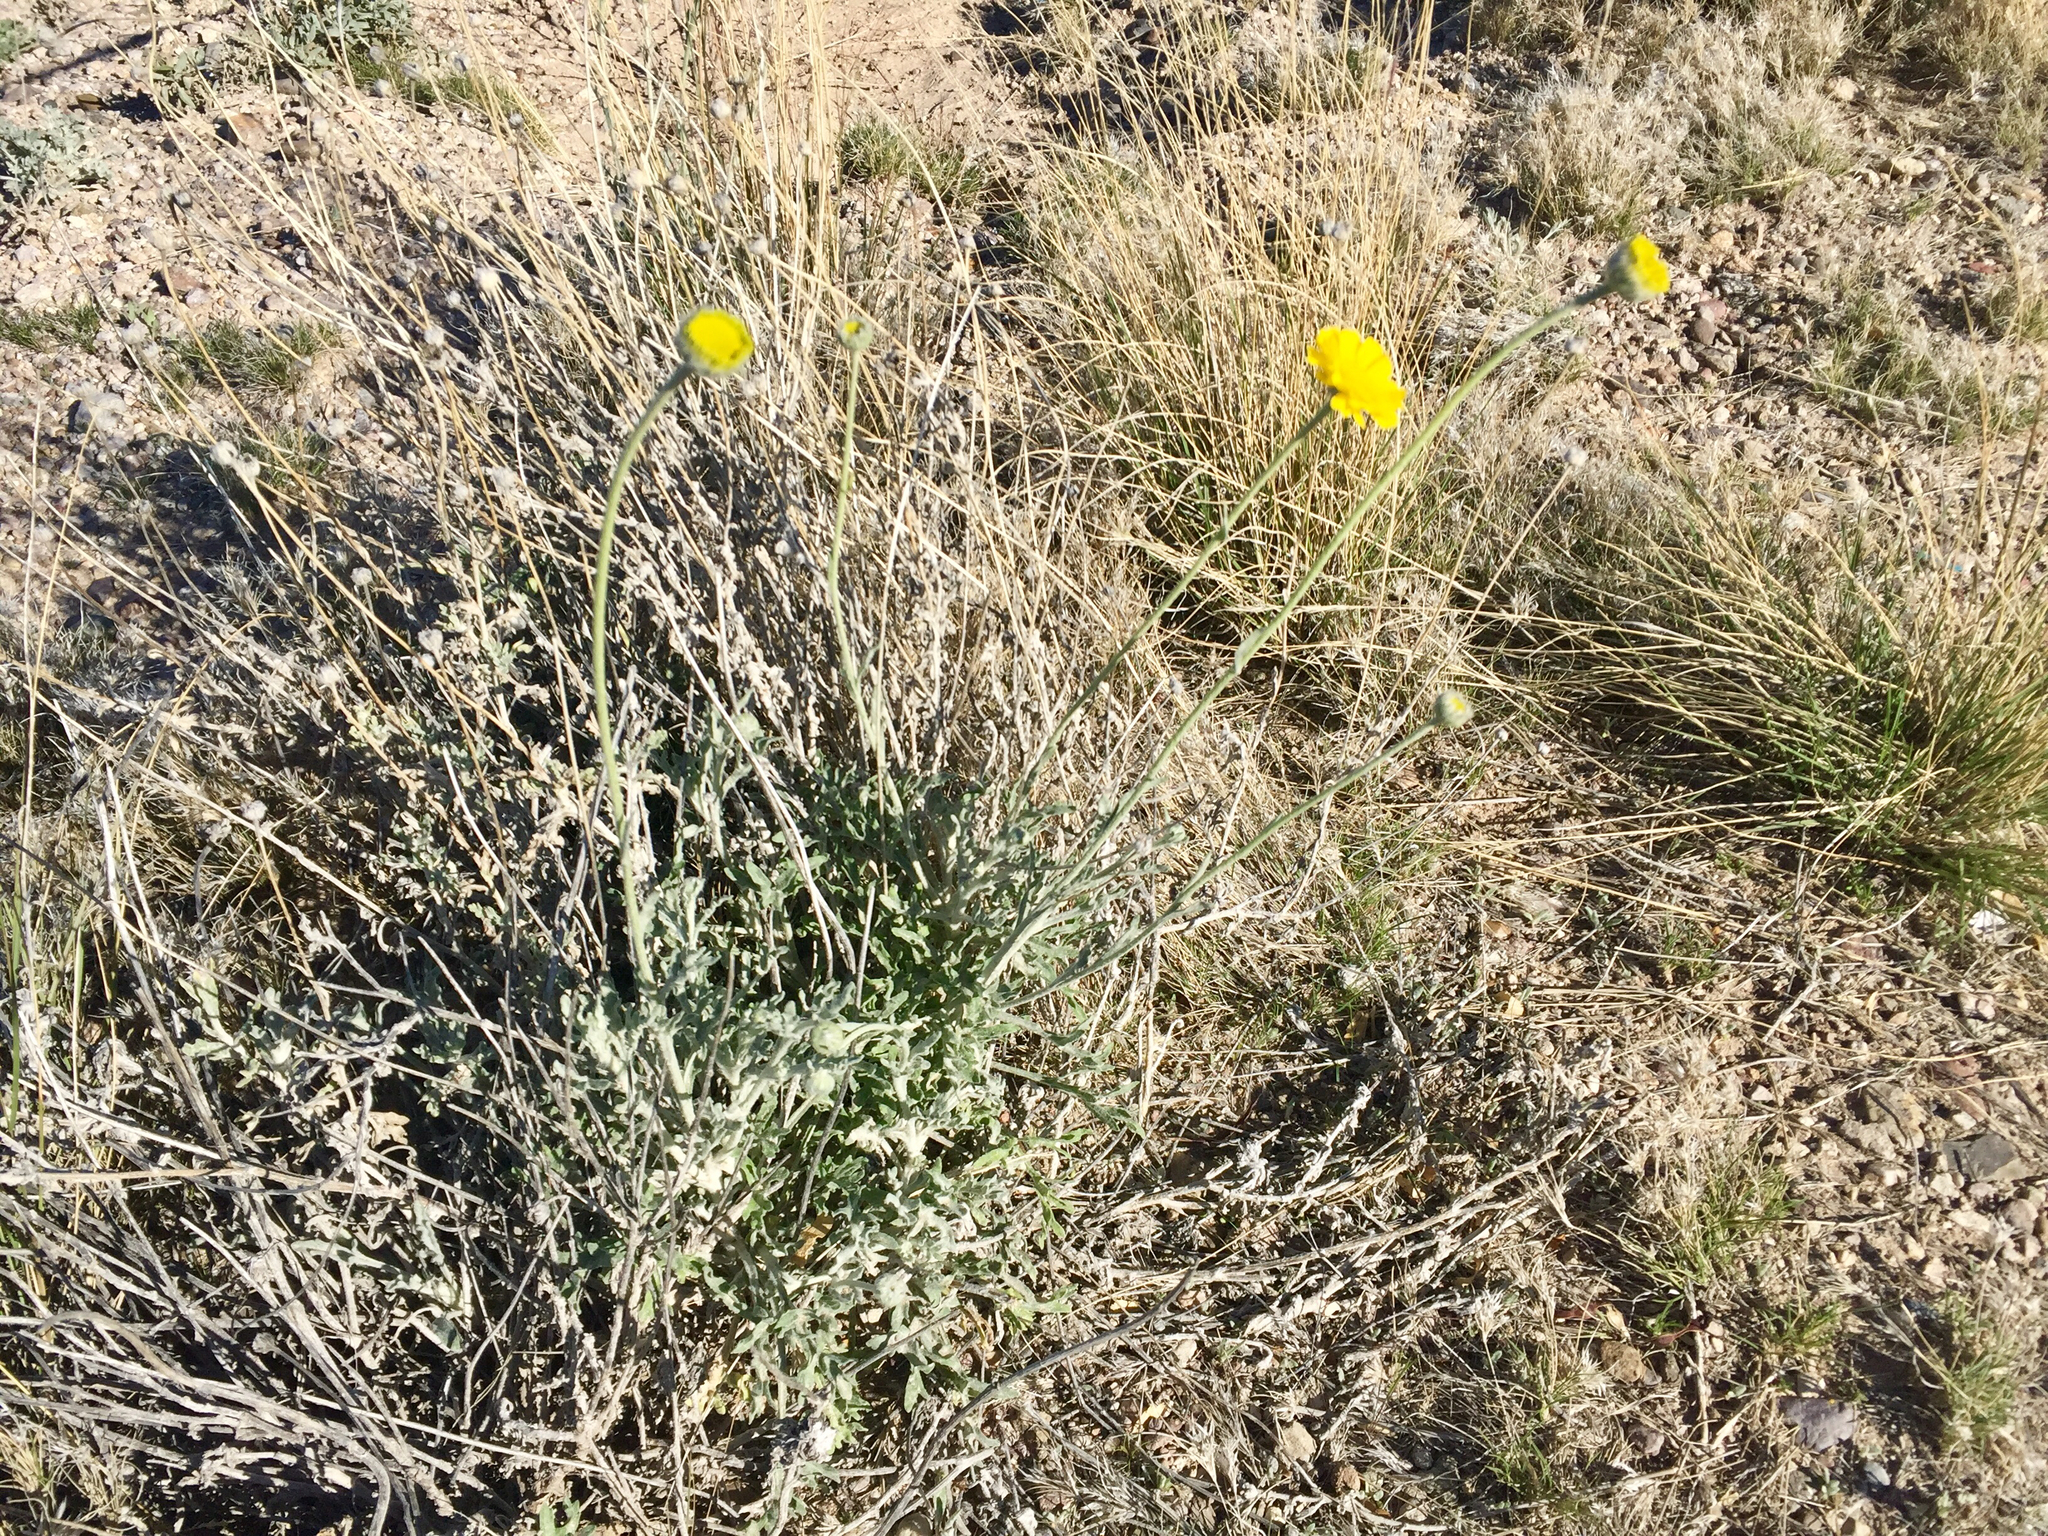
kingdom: Plantae
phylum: Tracheophyta
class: Magnoliopsida
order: Asterales
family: Asteraceae
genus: Baileya
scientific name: Baileya multiradiata
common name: Desert-marigold
